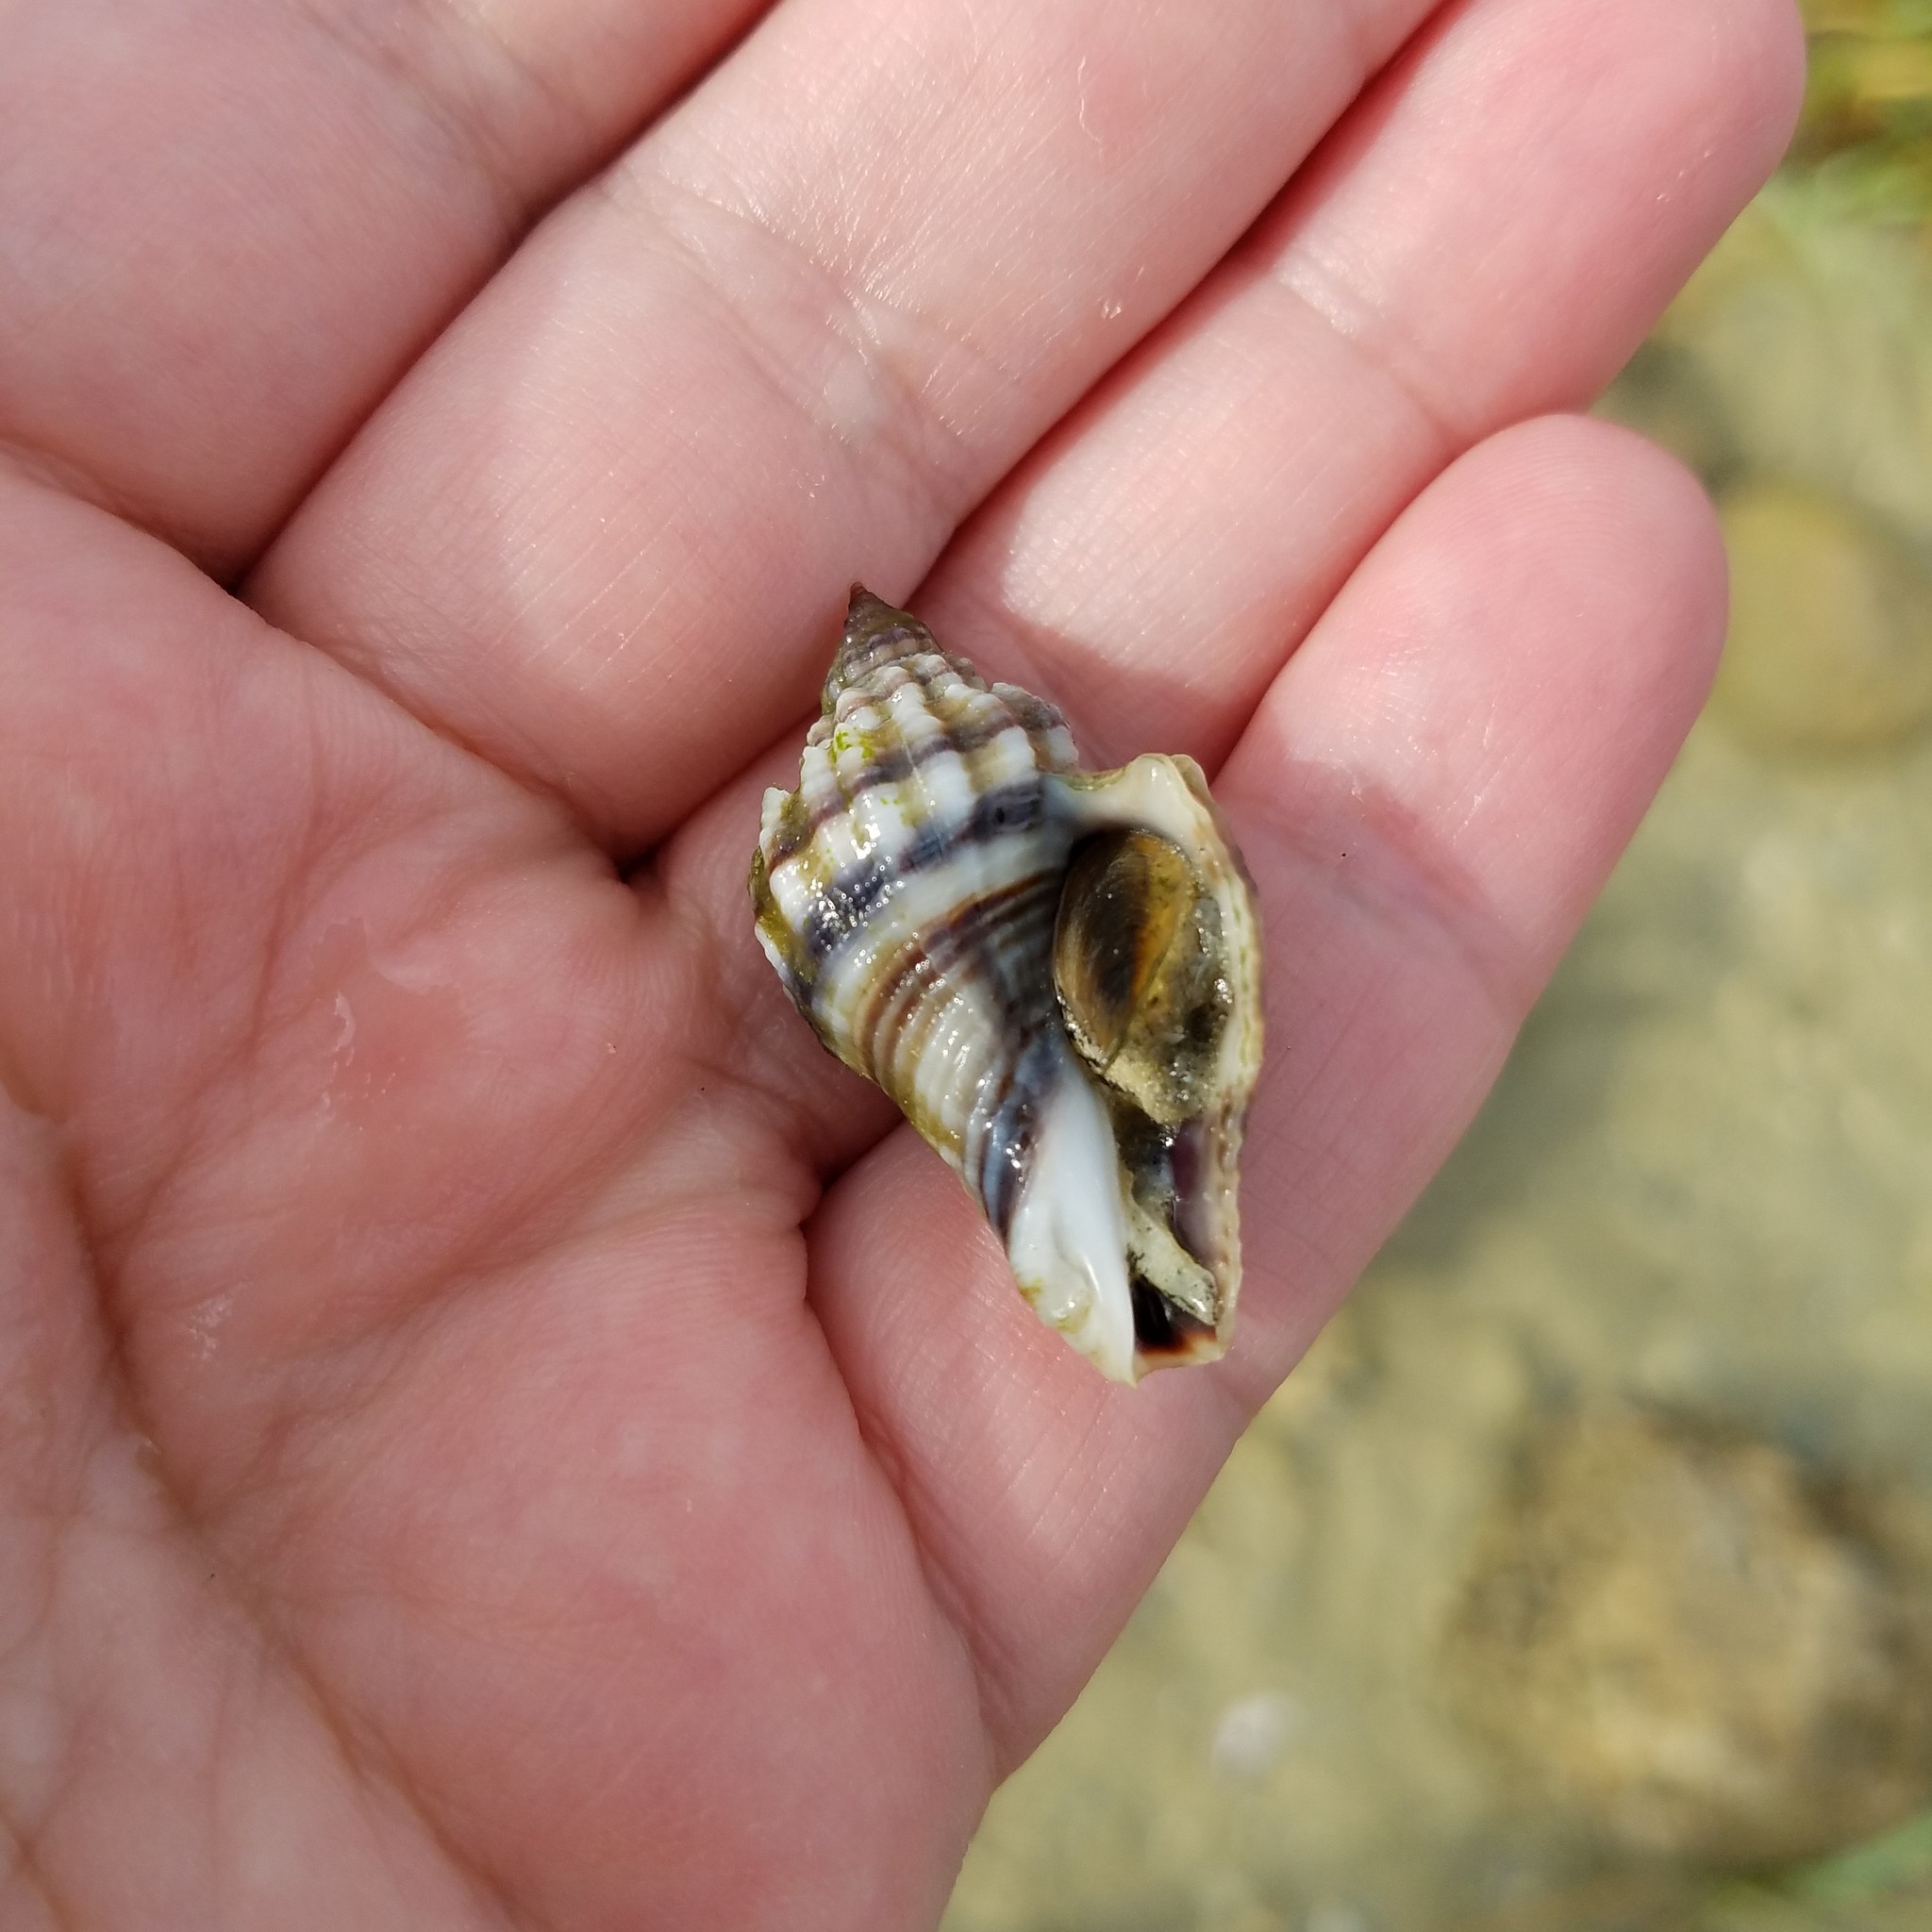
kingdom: Animalia
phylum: Mollusca
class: Gastropoda
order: Neogastropoda
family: Melongenidae
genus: Melongena
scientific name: Melongena corona
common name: American crown conch
